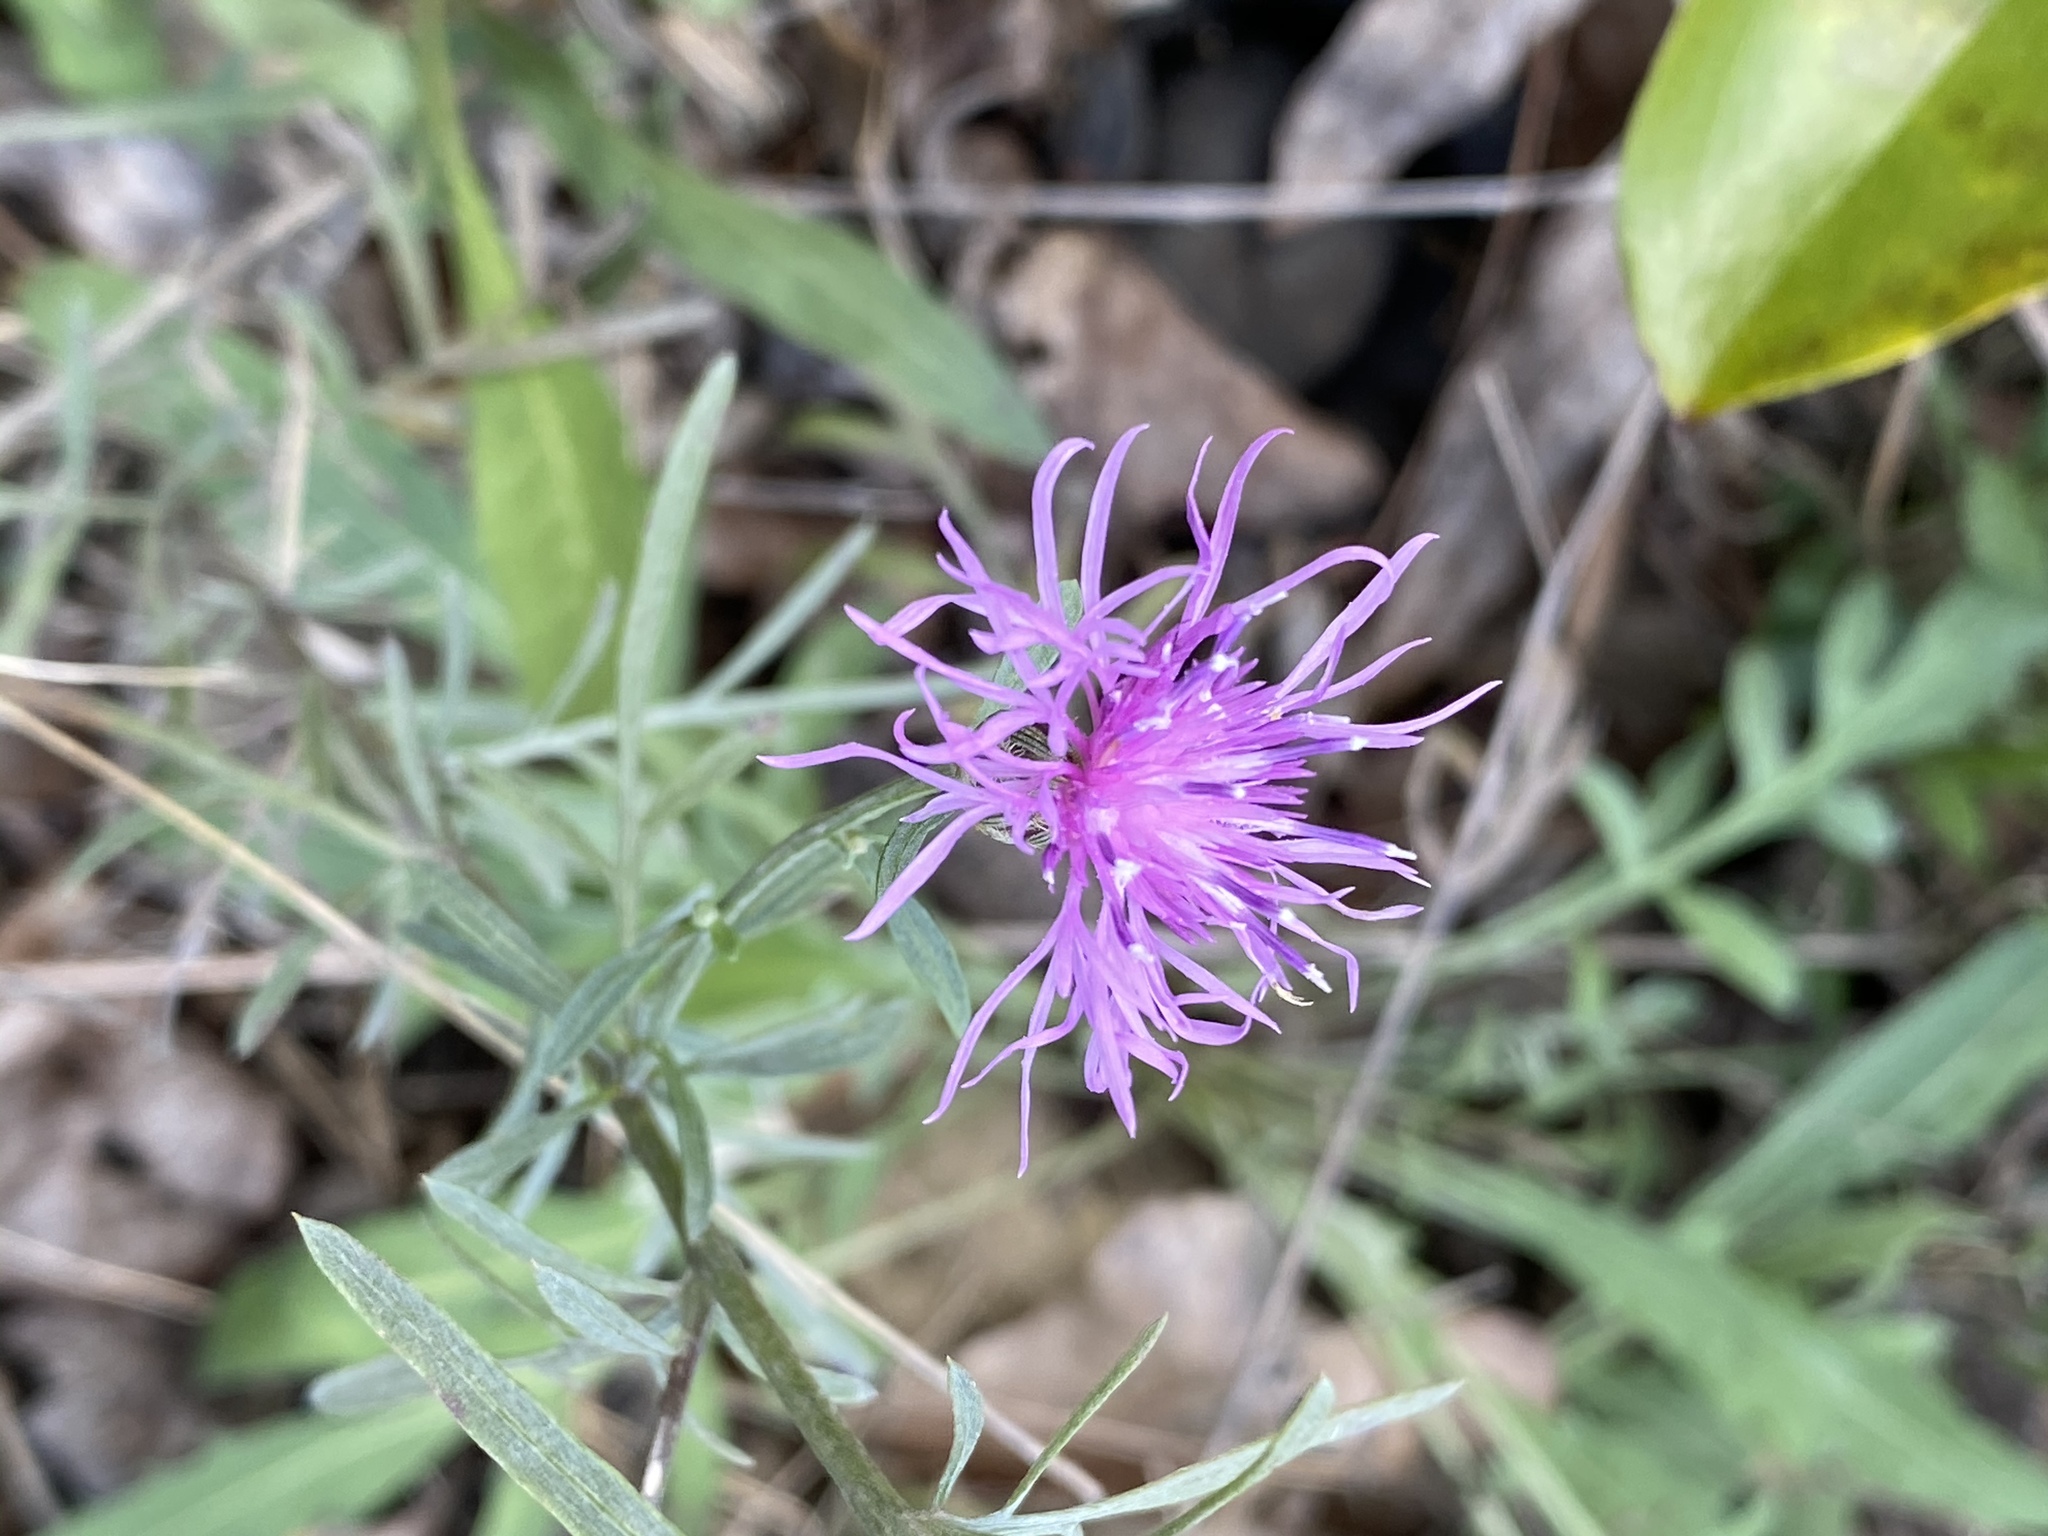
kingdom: Plantae
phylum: Tracheophyta
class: Magnoliopsida
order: Asterales
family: Asteraceae
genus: Centaurea
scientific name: Centaurea stoebe
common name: Spotted knapweed
